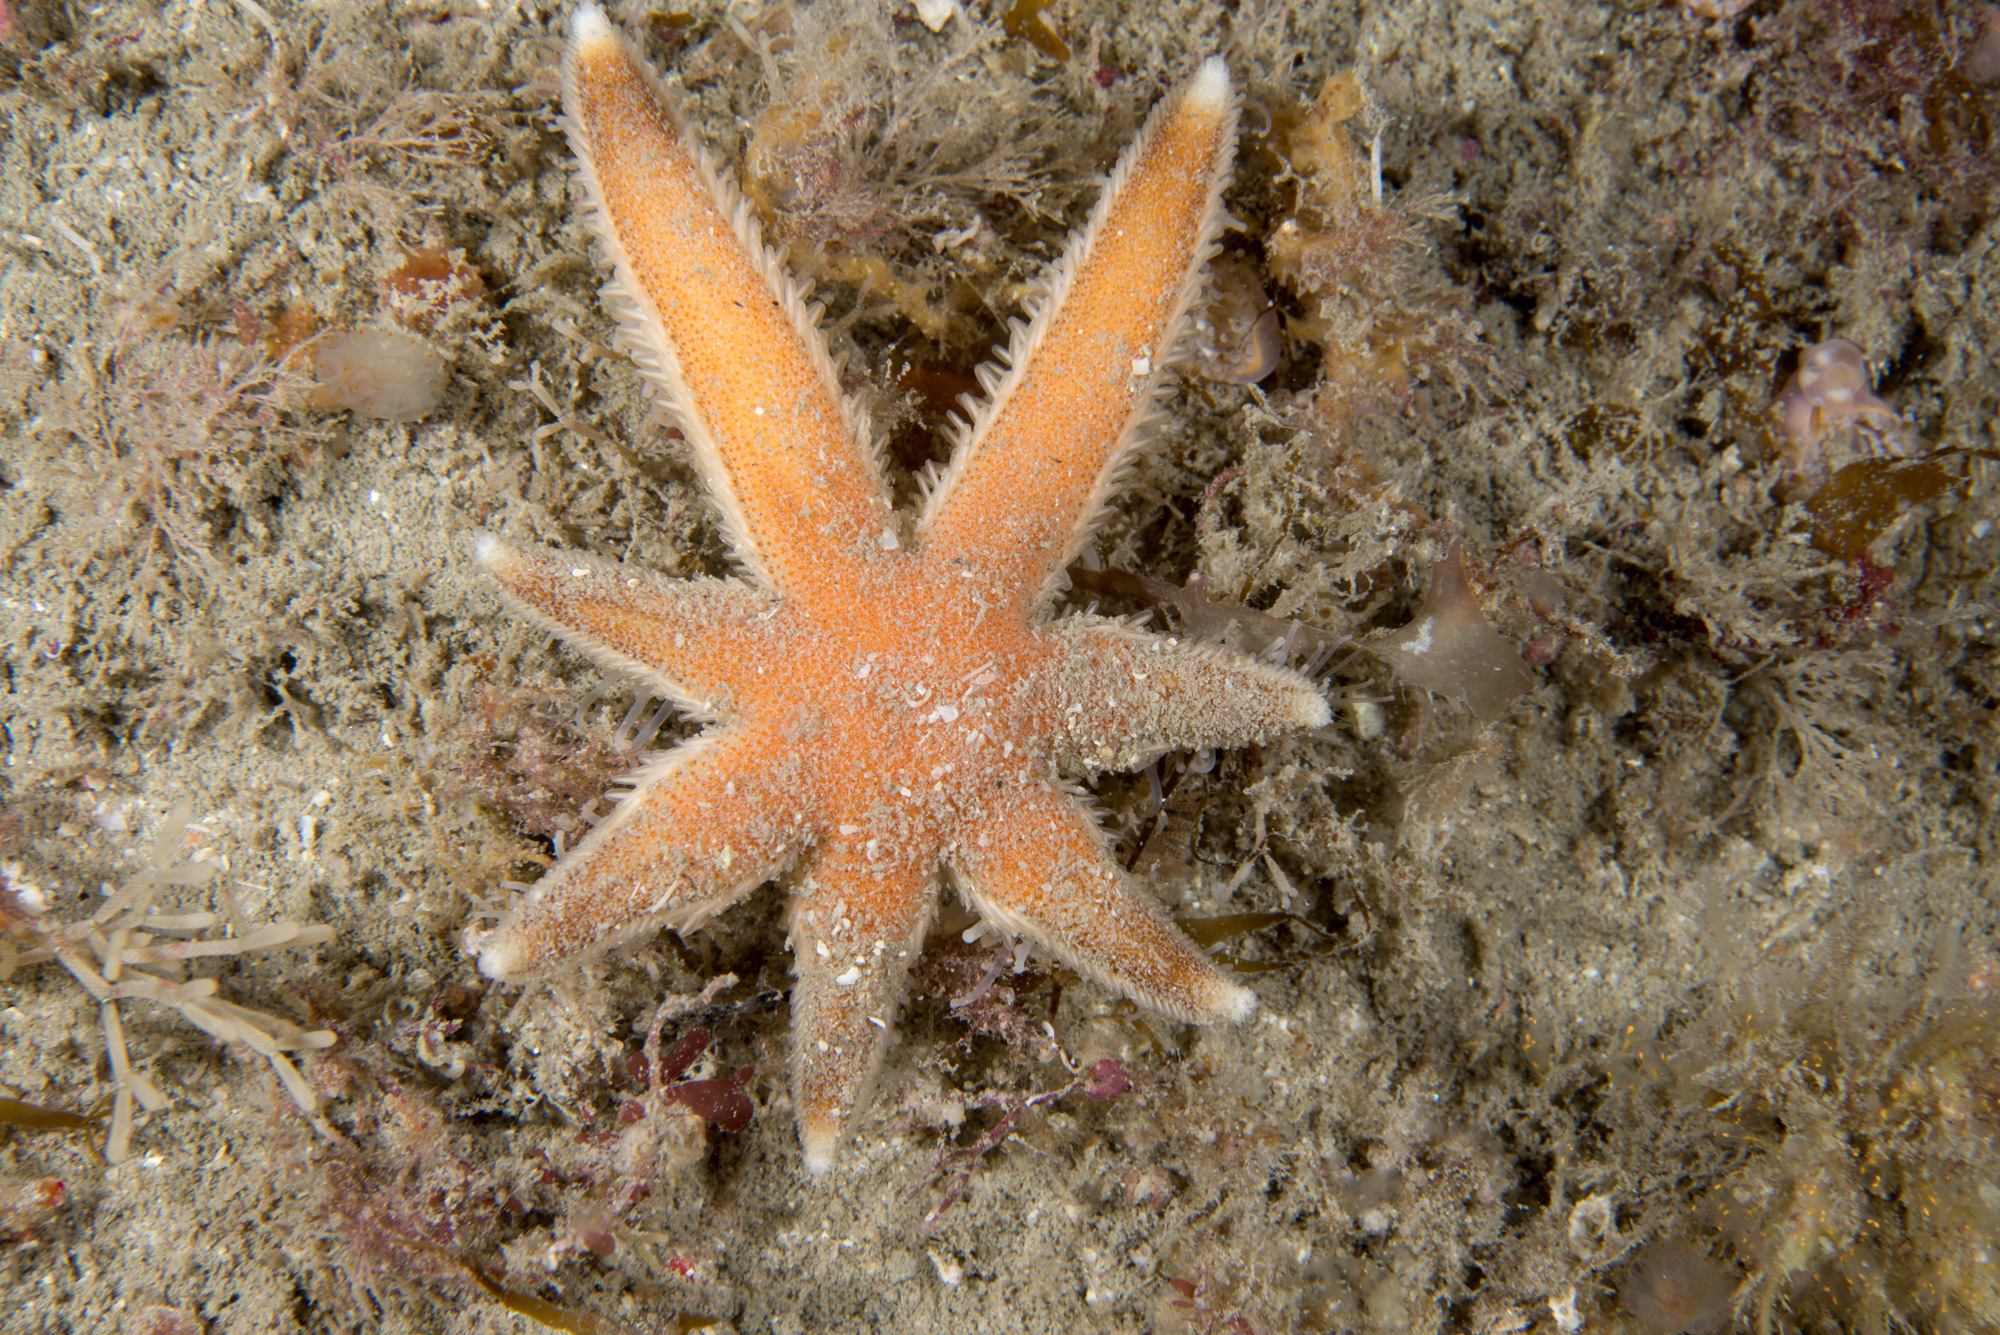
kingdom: Animalia
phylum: Echinodermata
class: Asteroidea
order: Paxillosida
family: Luidiidae
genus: Luidia
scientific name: Luidia ciliaris
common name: Seven-armed starfish
